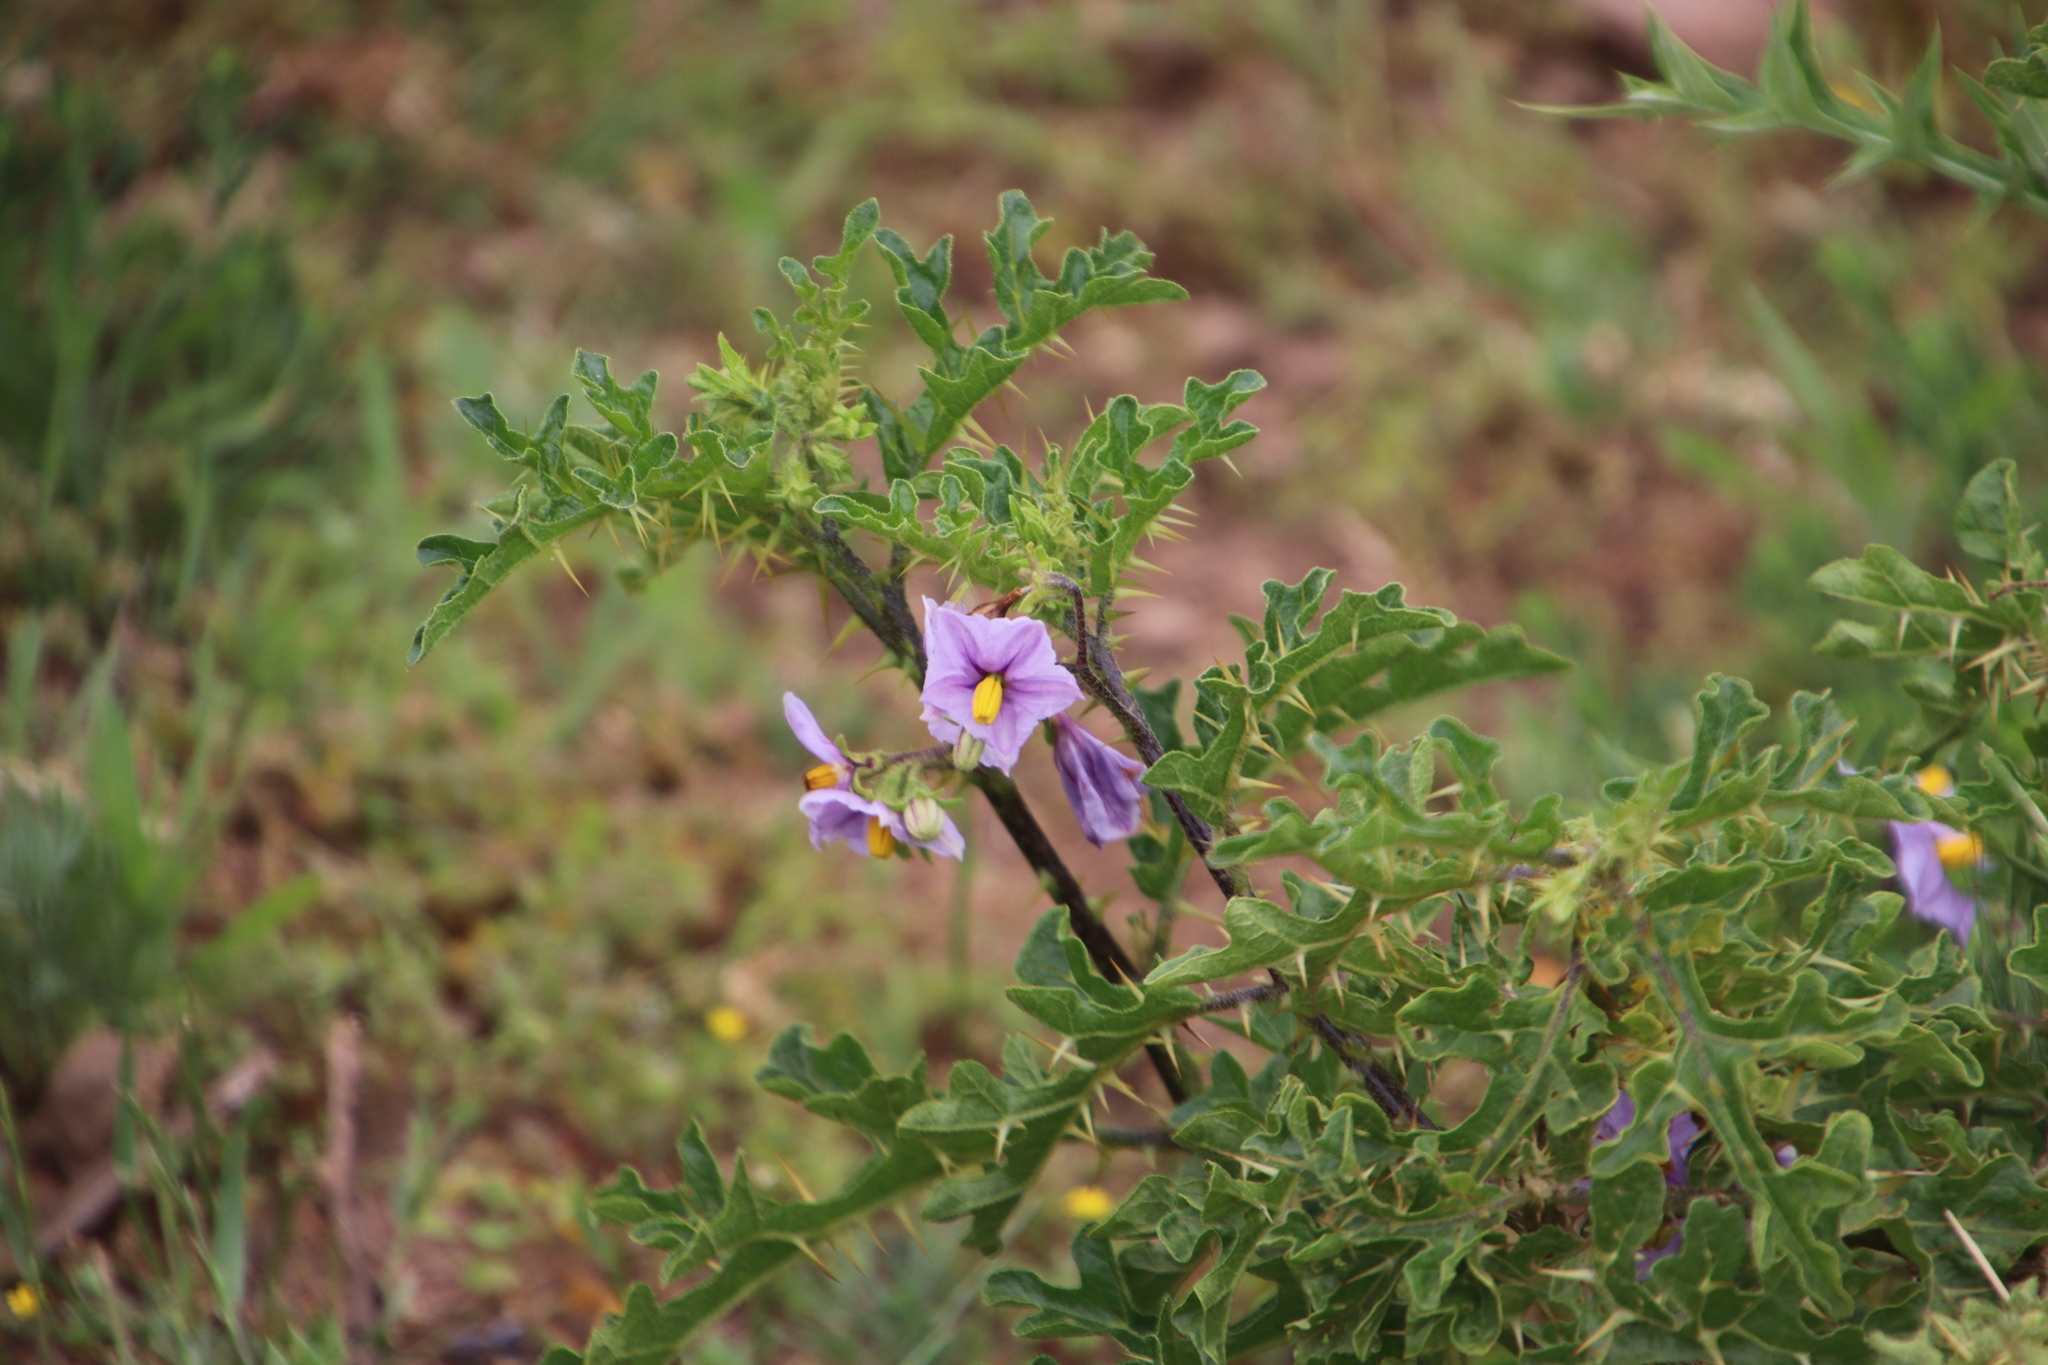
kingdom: Plantae
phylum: Tracheophyta
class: Magnoliopsida
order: Solanales
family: Solanaceae
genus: Solanum
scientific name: Solanum linnaeanum
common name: Nightshade
